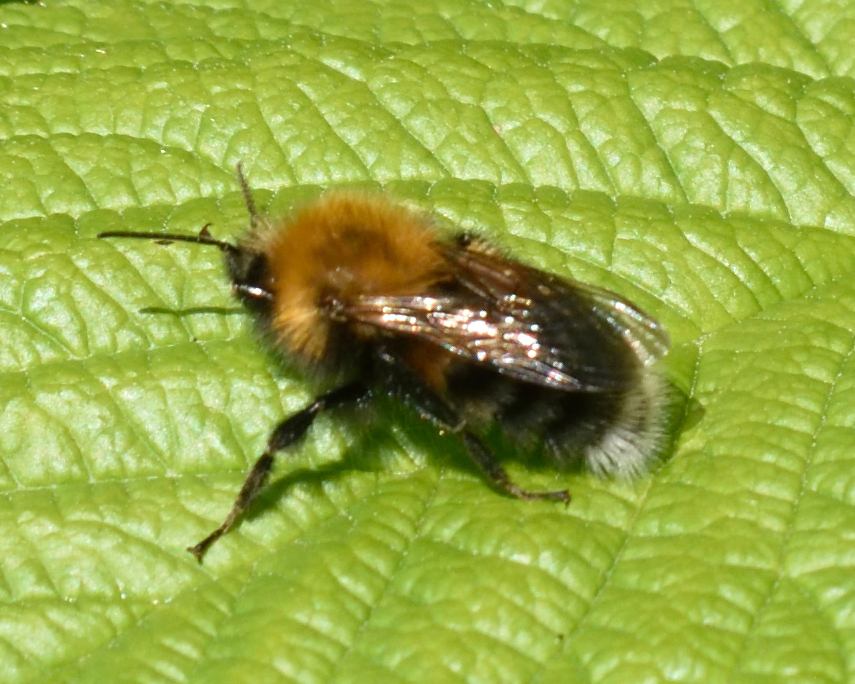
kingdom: Animalia
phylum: Arthropoda
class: Insecta
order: Hymenoptera
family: Apidae
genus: Bombus
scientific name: Bombus hypnorum
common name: New garden bumblebee
